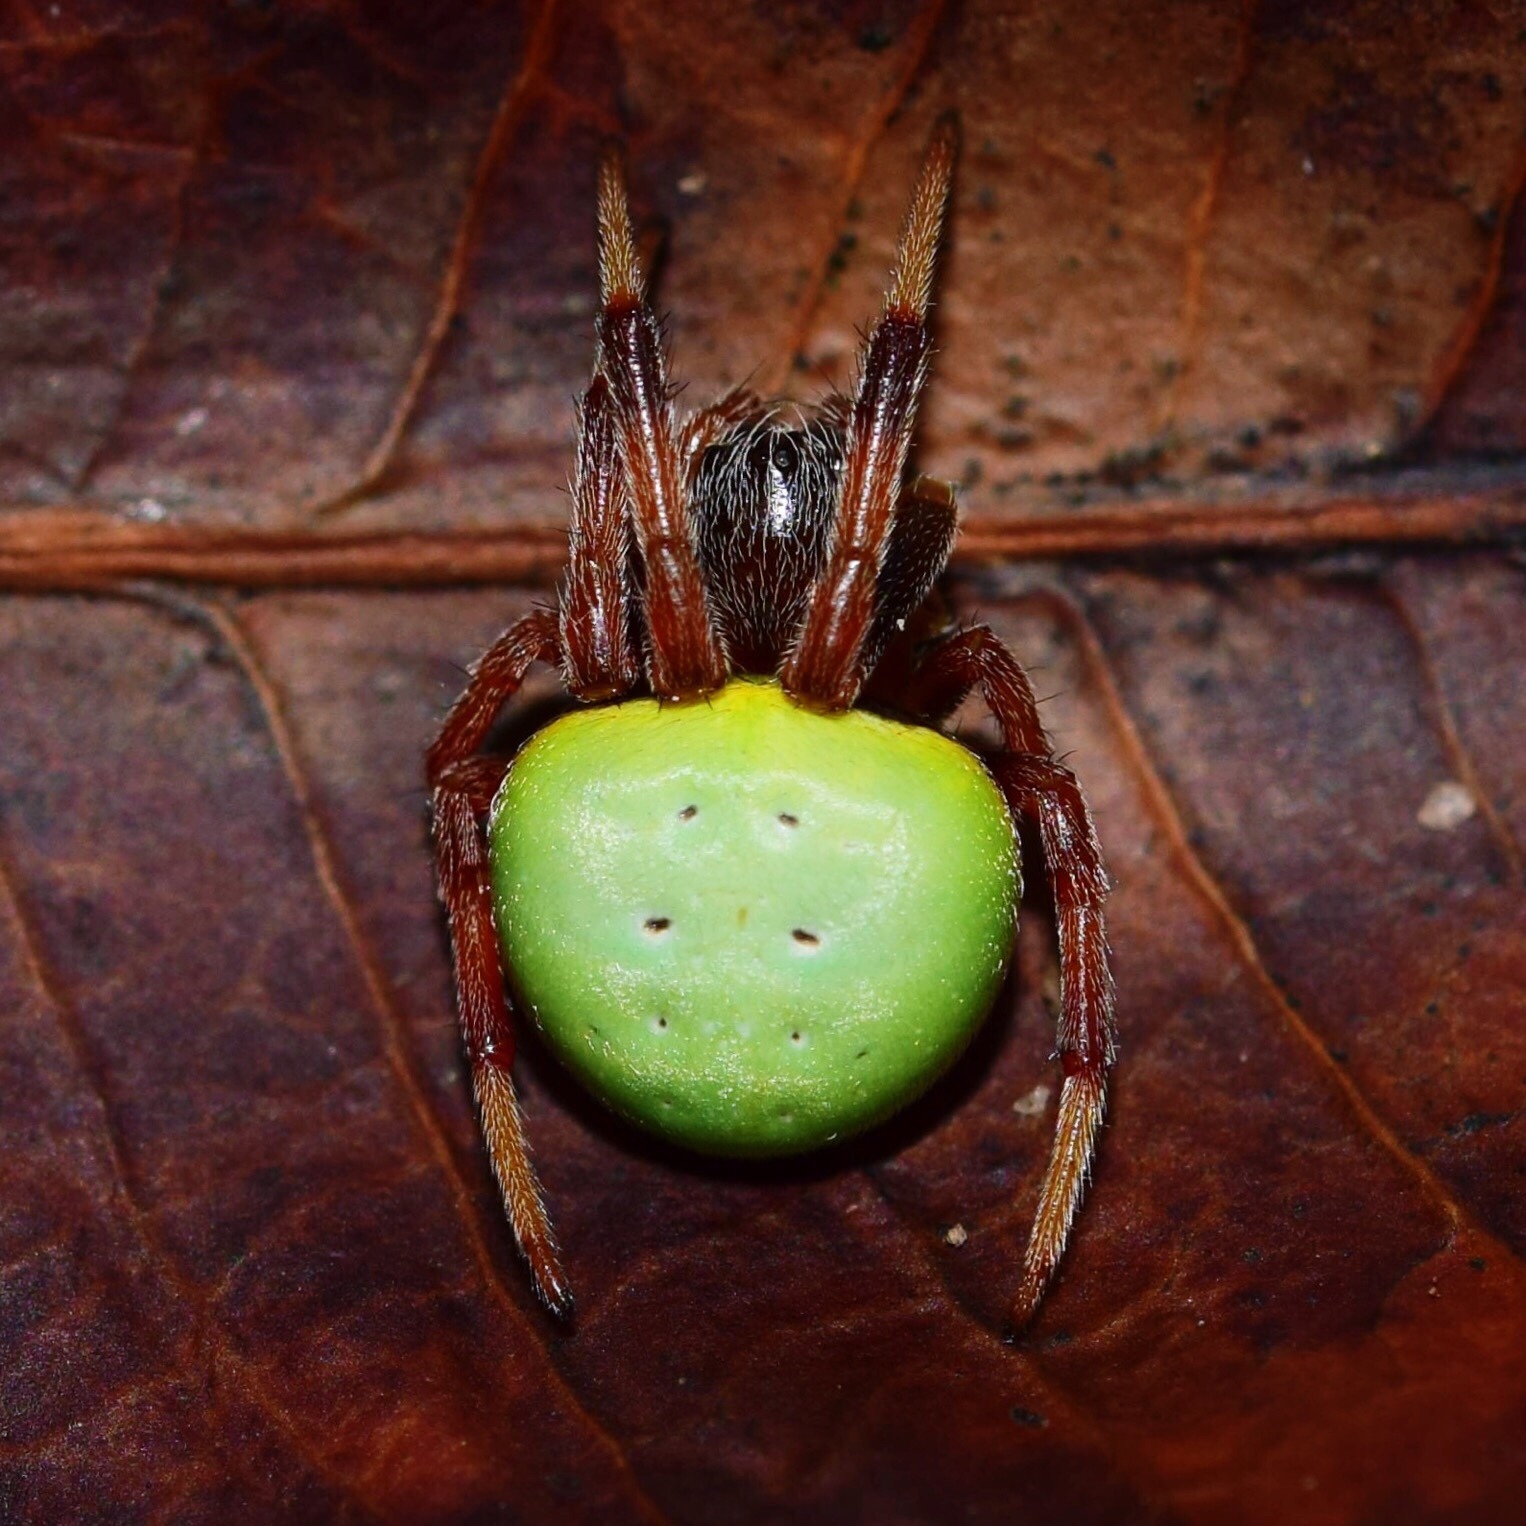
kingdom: Animalia
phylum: Arthropoda
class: Arachnida
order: Araneae
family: Araneidae
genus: Araneus
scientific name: Araneus apricus
